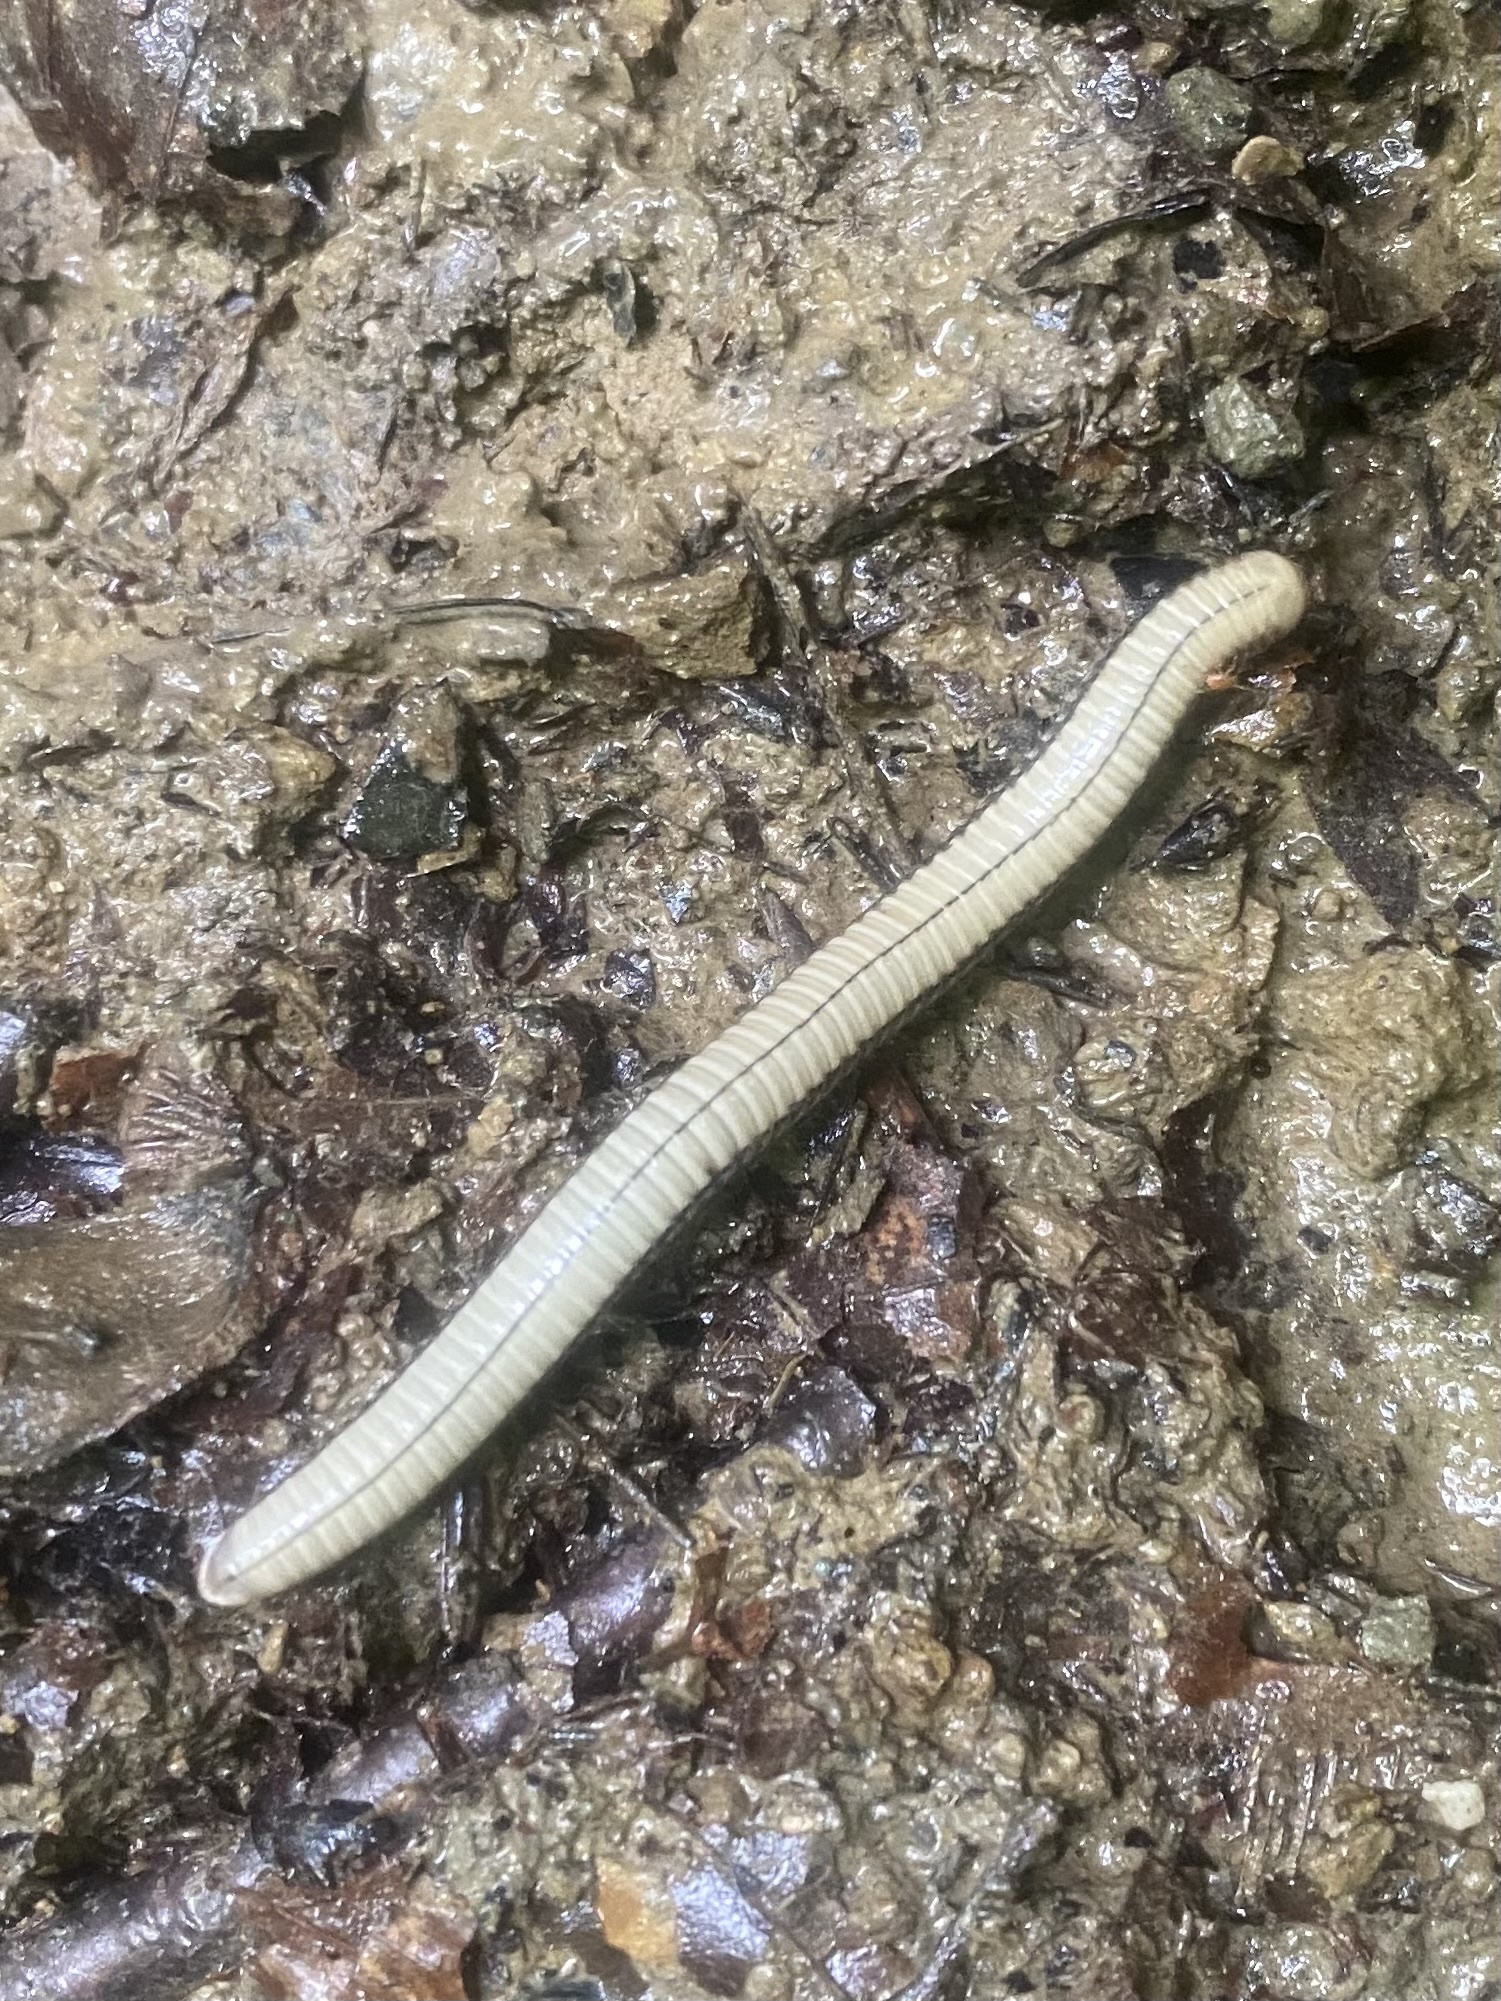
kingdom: Animalia
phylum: Arthropoda
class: Diplopoda
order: Julida
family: Julidae
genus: Pachyiulus
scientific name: Pachyiulus krivolutskyi
